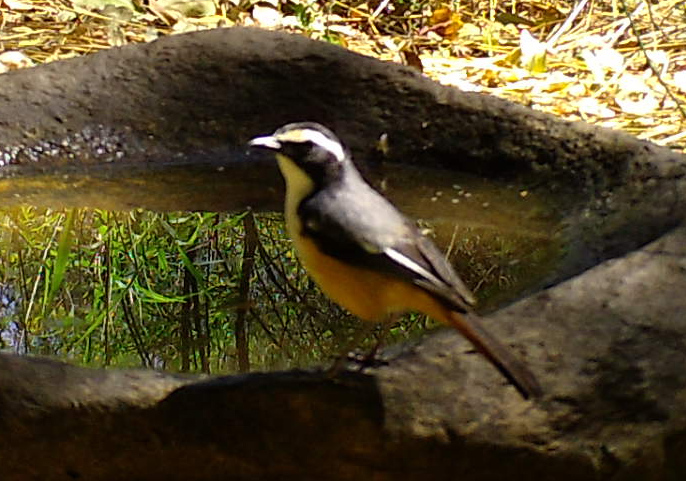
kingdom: Animalia
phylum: Chordata
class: Aves
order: Passeriformes
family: Muscicapidae
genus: Cossypha
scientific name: Cossypha humeralis
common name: White-throated robin-chat
